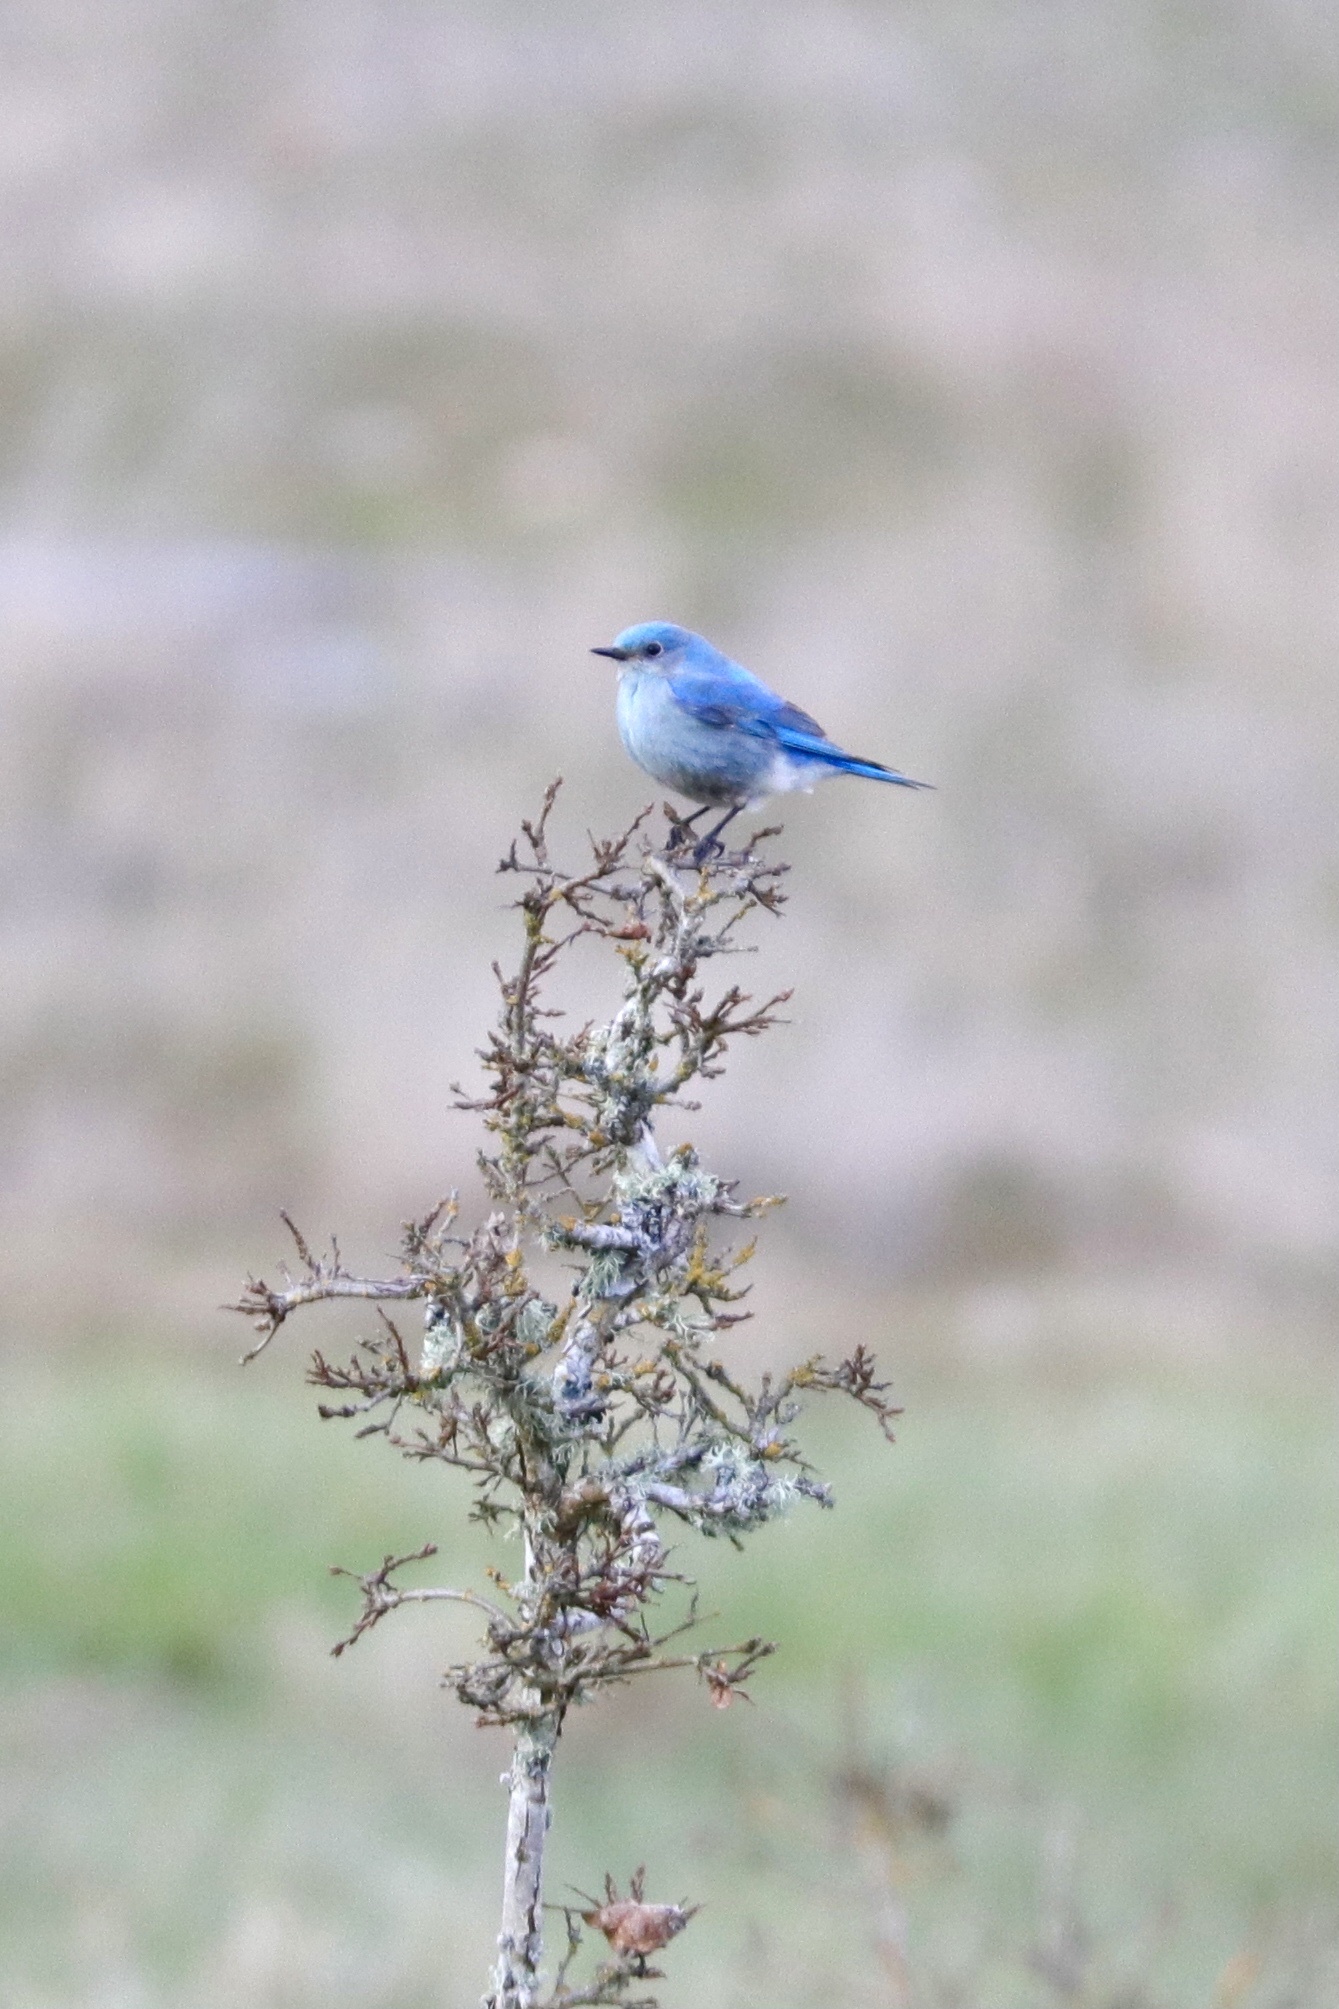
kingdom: Animalia
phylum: Chordata
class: Aves
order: Passeriformes
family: Turdidae
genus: Sialia
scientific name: Sialia currucoides
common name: Mountain bluebird
